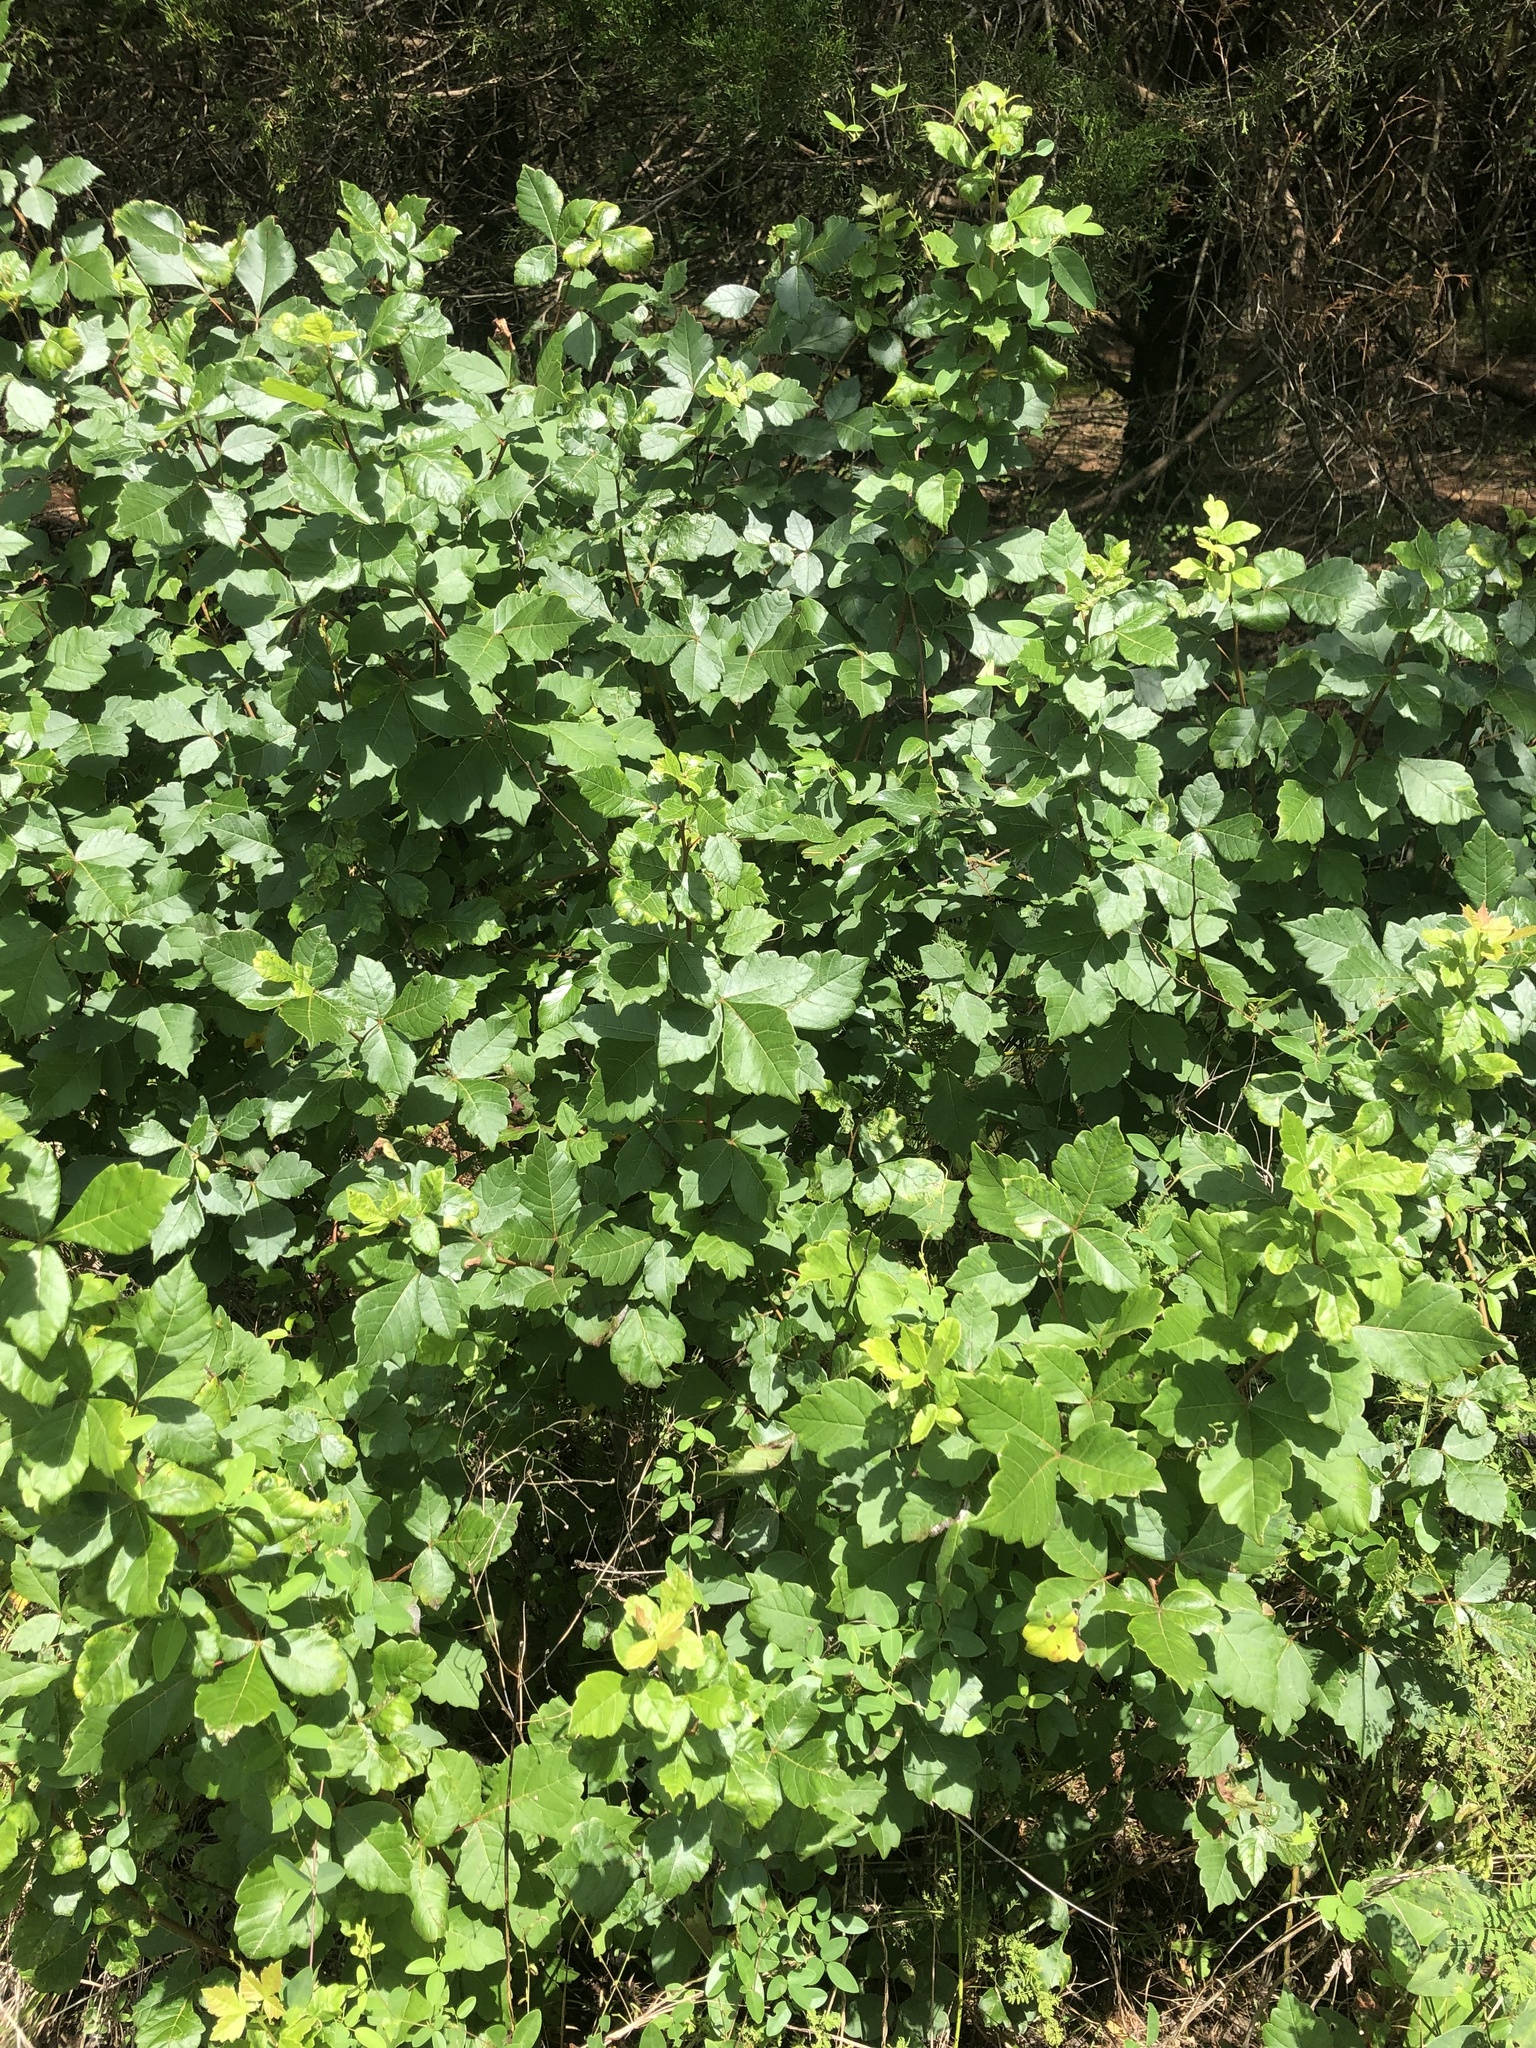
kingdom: Plantae
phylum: Tracheophyta
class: Magnoliopsida
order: Sapindales
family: Anacardiaceae
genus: Rhus
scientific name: Rhus aromatica
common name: Aromatic sumac
